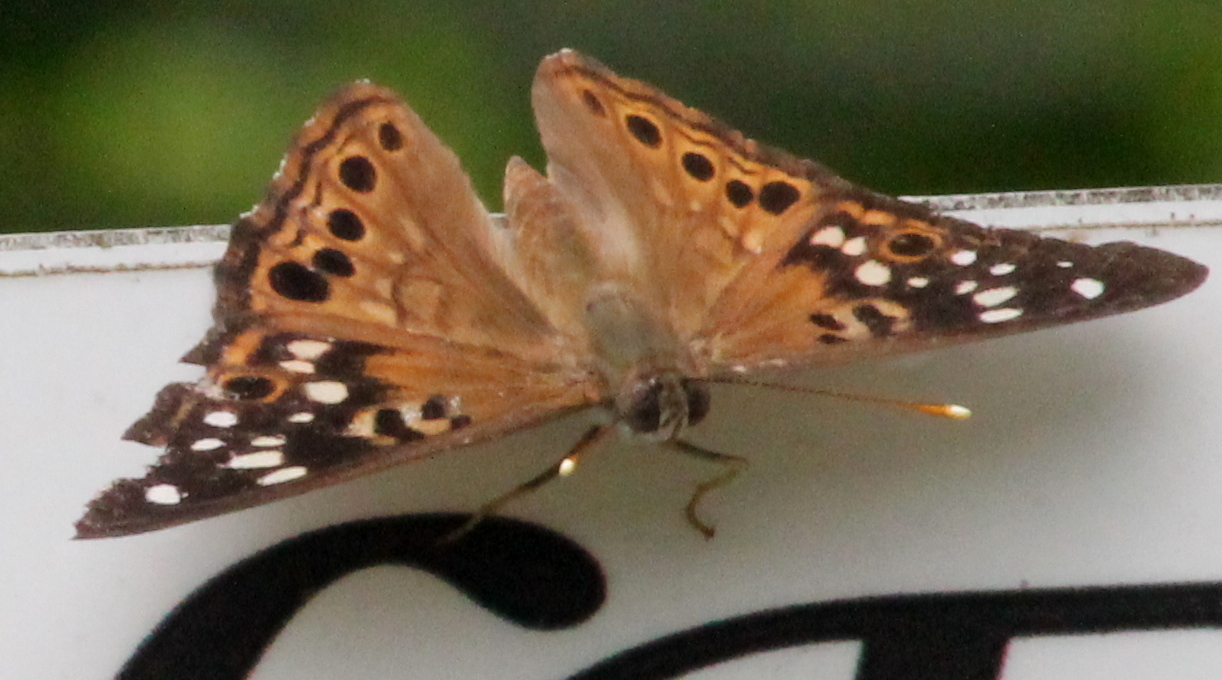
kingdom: Animalia
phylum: Arthropoda
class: Insecta
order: Lepidoptera
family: Nymphalidae
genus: Asterocampa
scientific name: Asterocampa celtis
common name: Hackberry emperor
